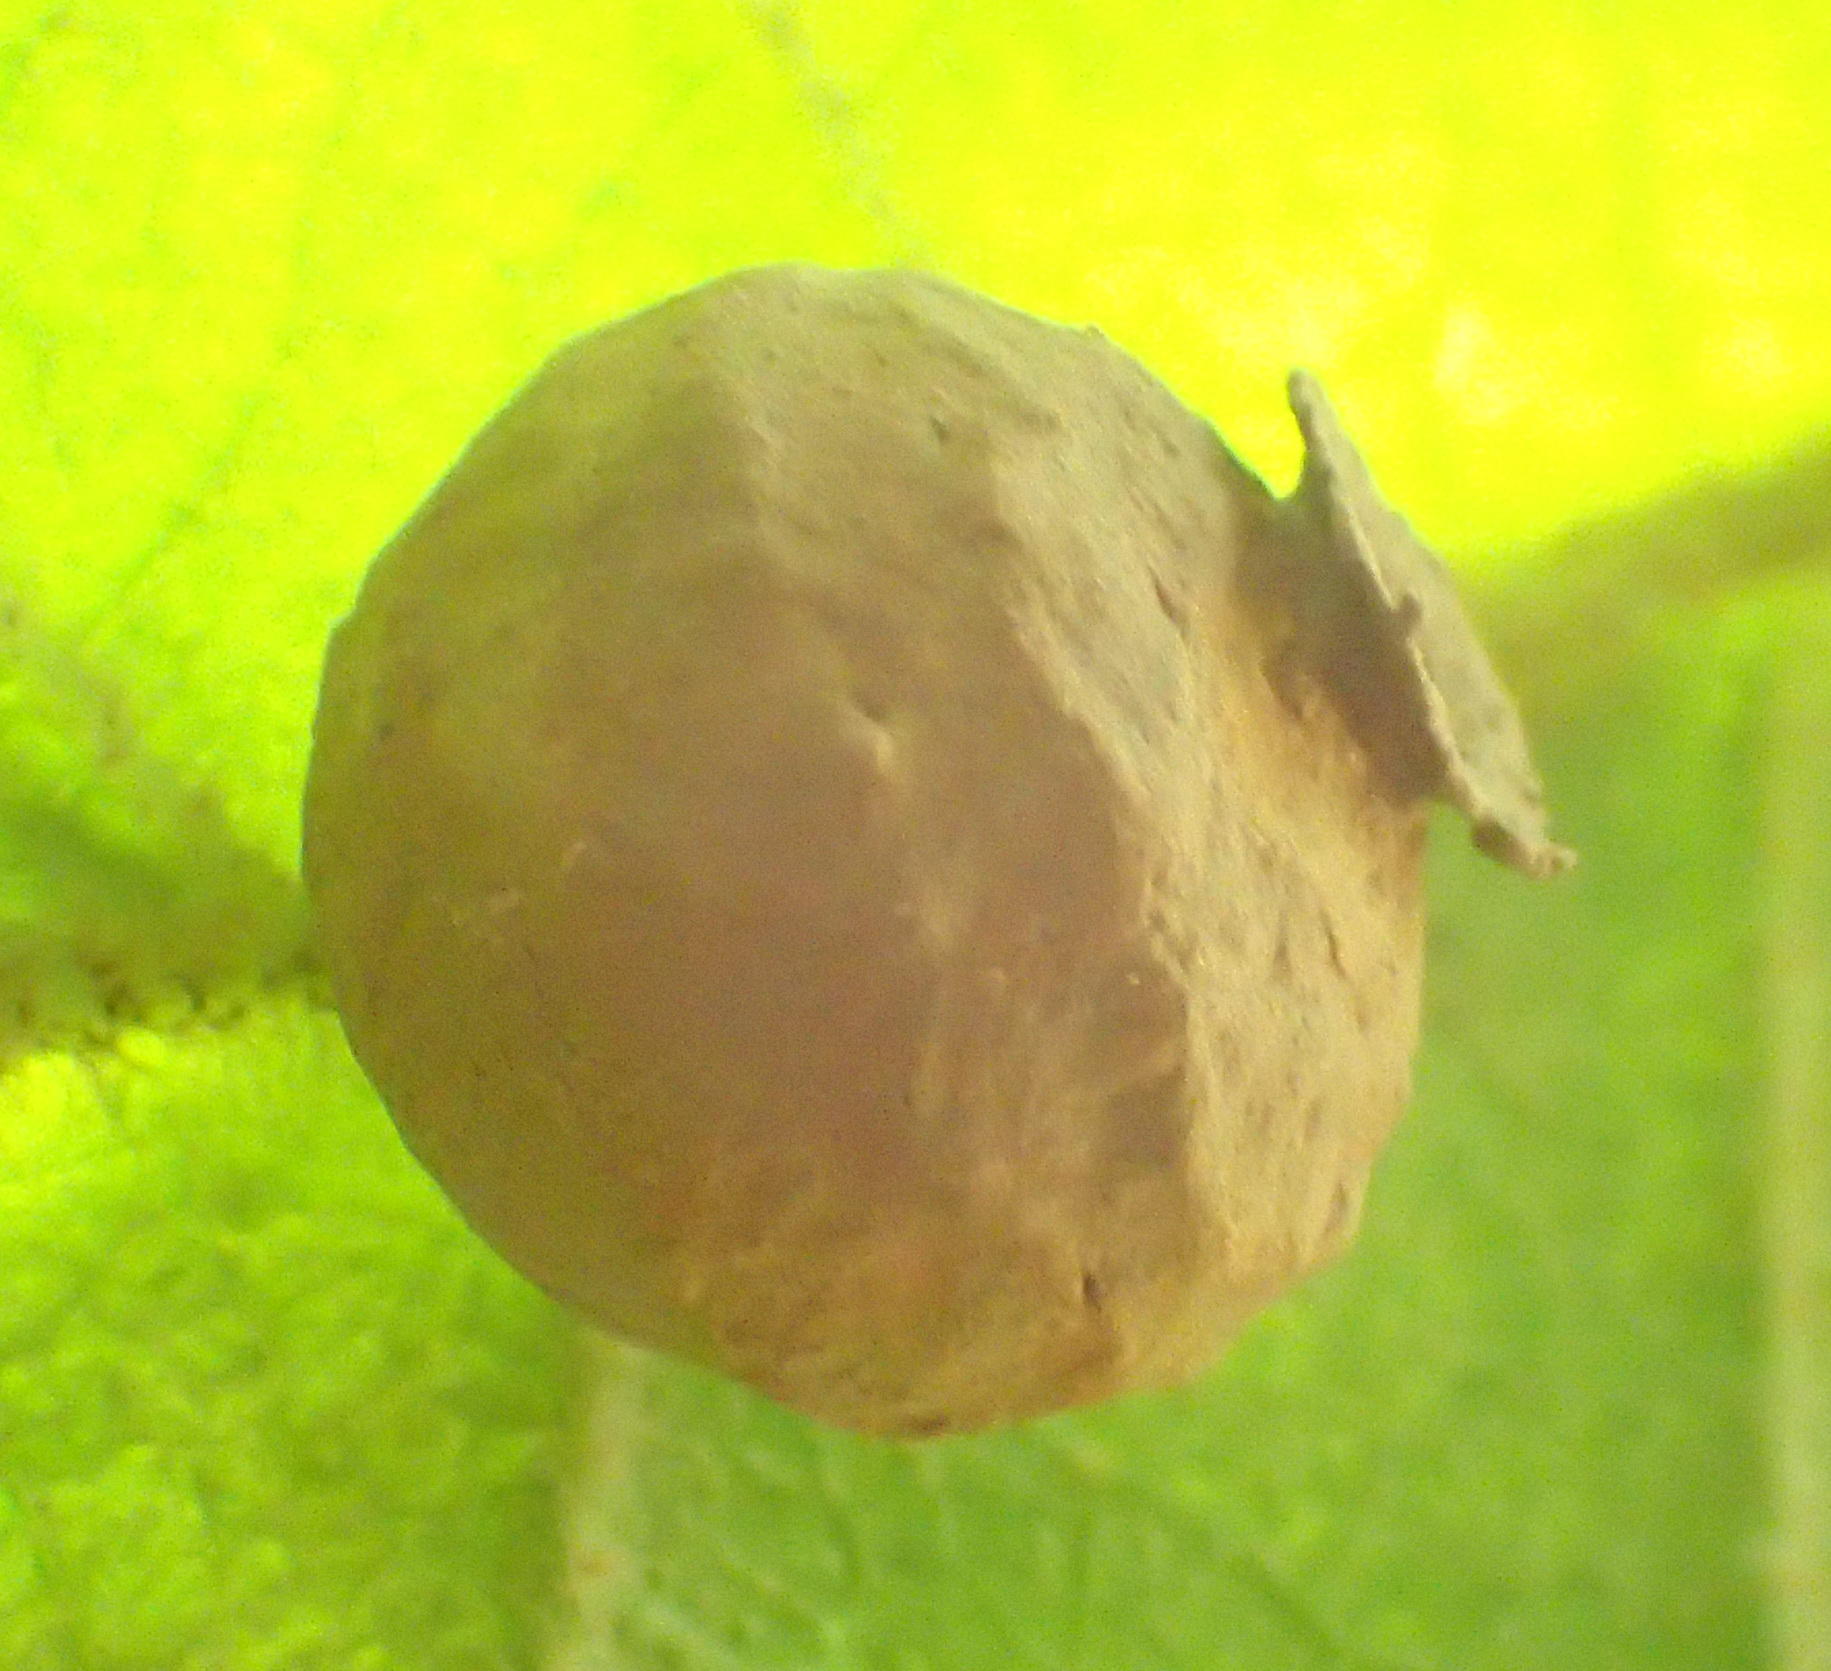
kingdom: Animalia
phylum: Arthropoda
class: Insecta
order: Hymenoptera
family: Eumenidae
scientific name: Eumenidae
